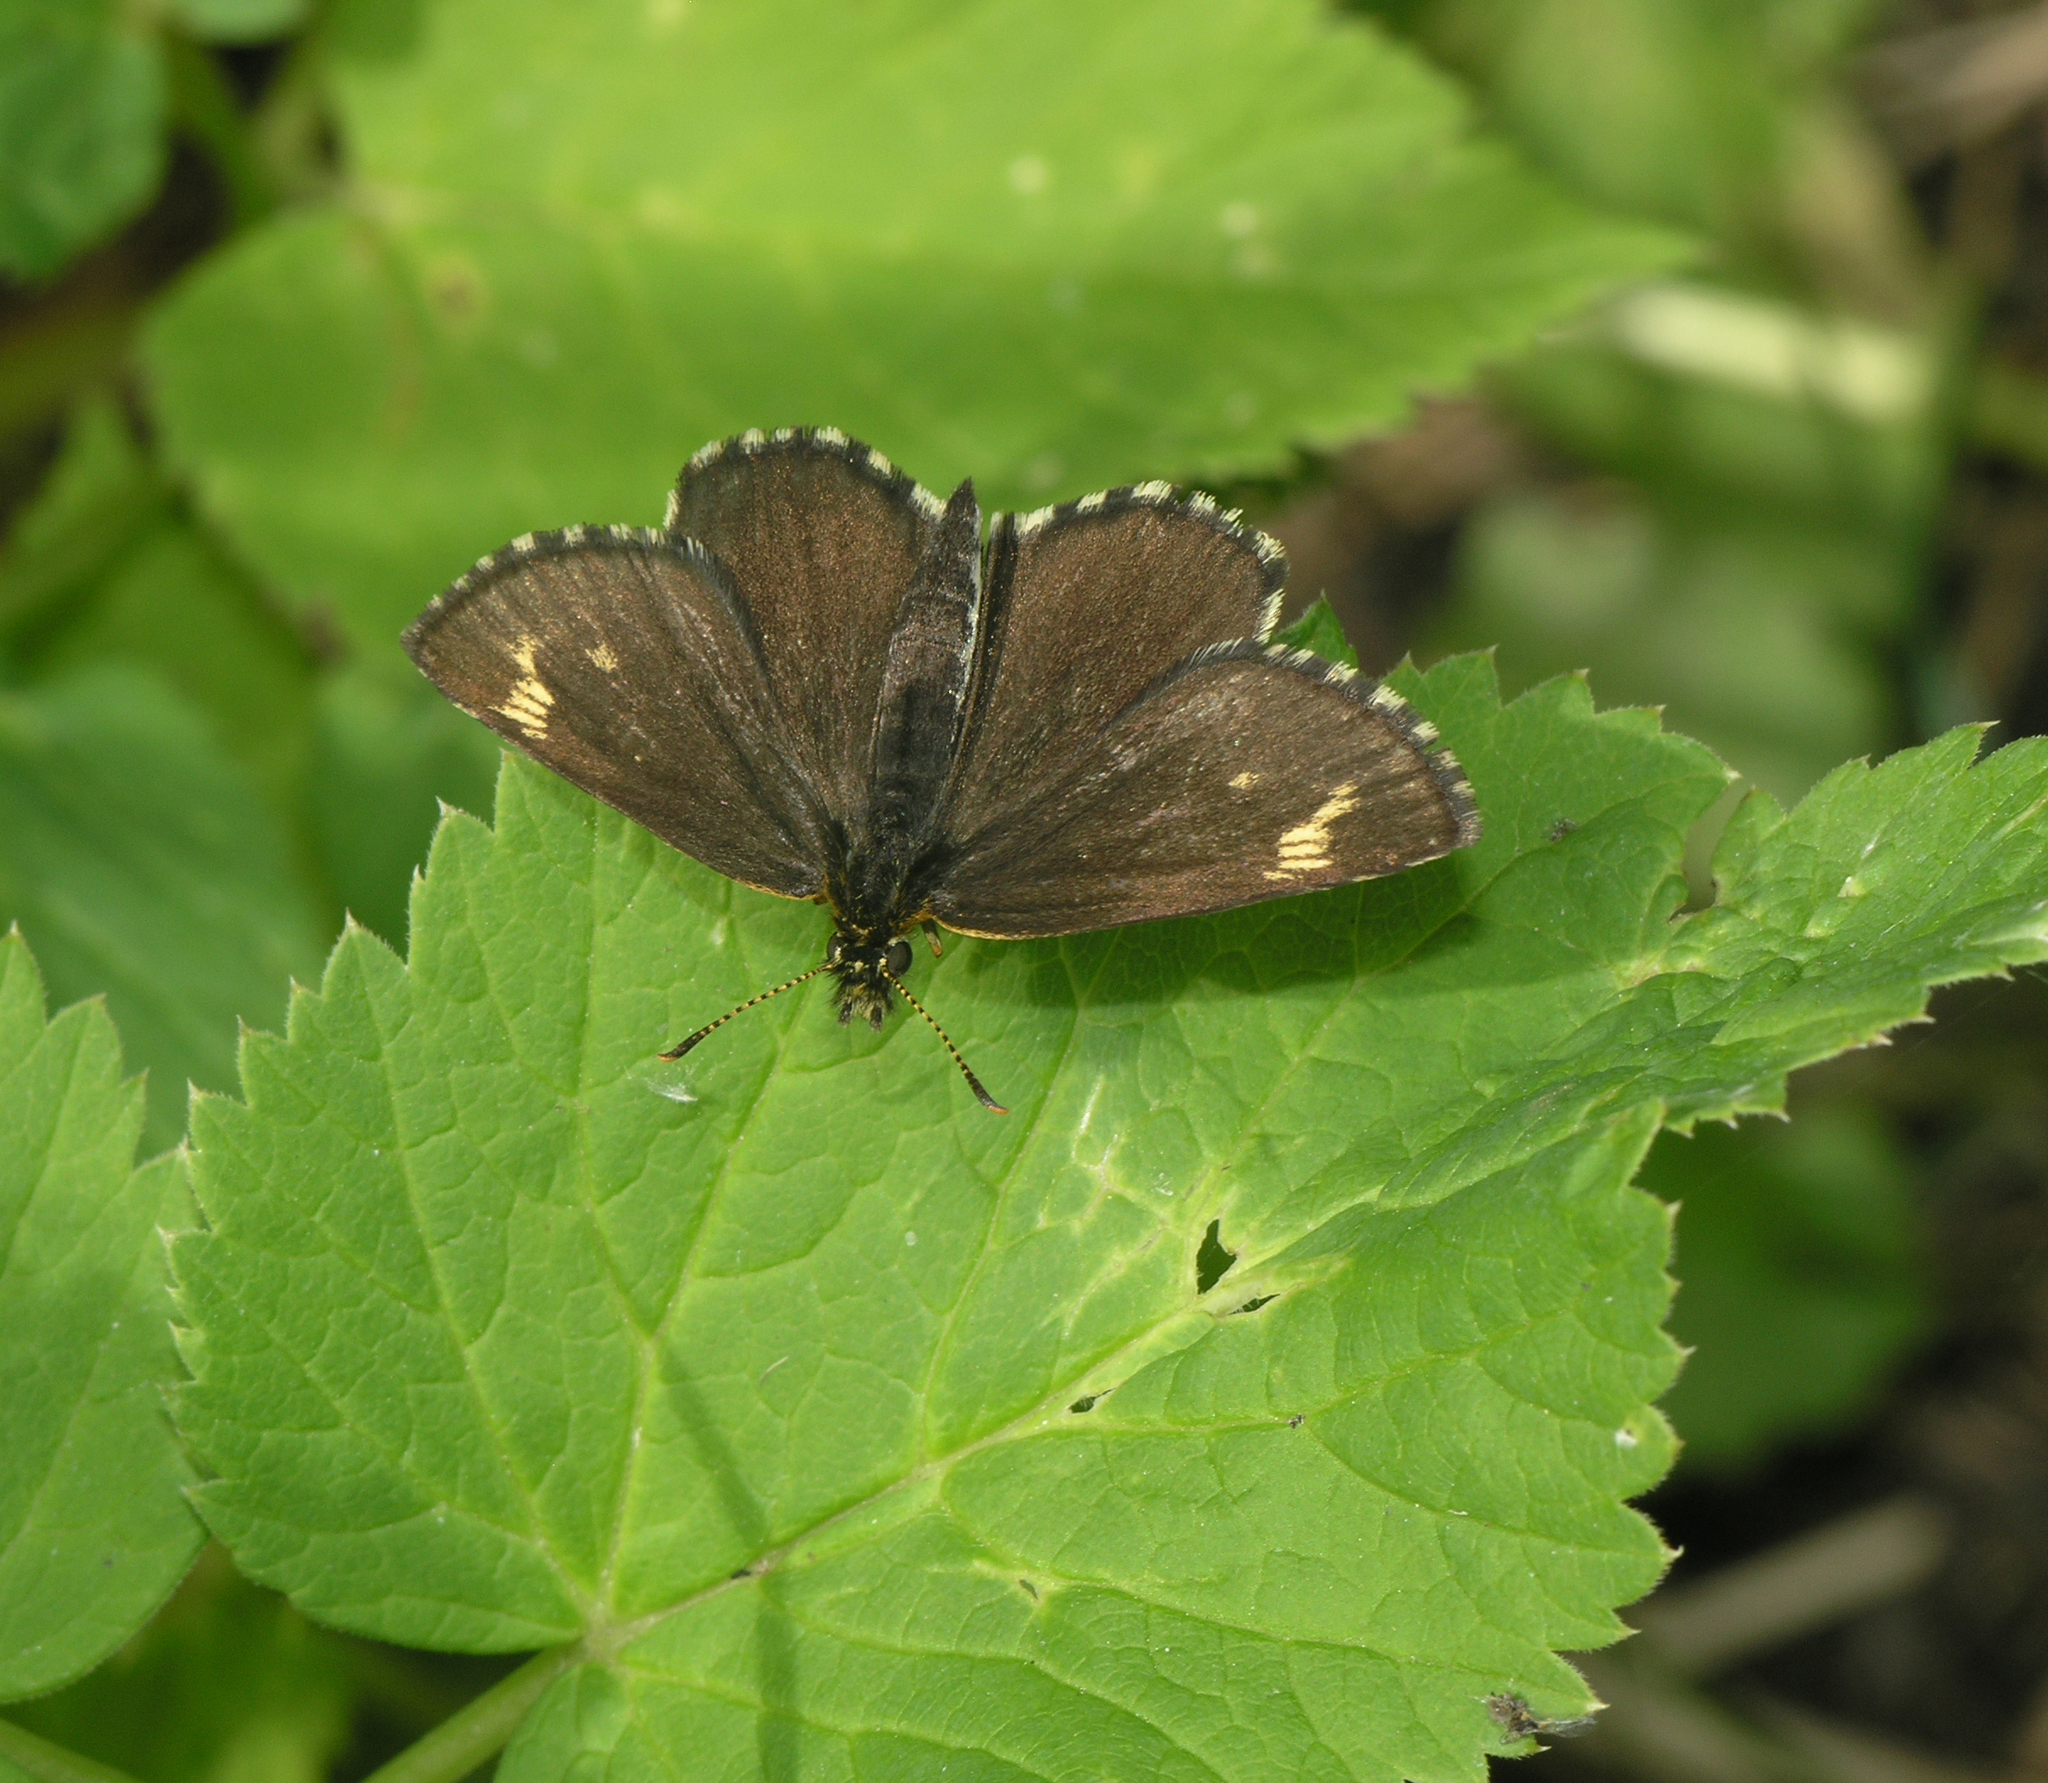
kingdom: Animalia
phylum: Arthropoda
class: Insecta
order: Lepidoptera
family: Hesperiidae
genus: Heteropterus
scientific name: Heteropterus morpheus
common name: Large chequered skipper
